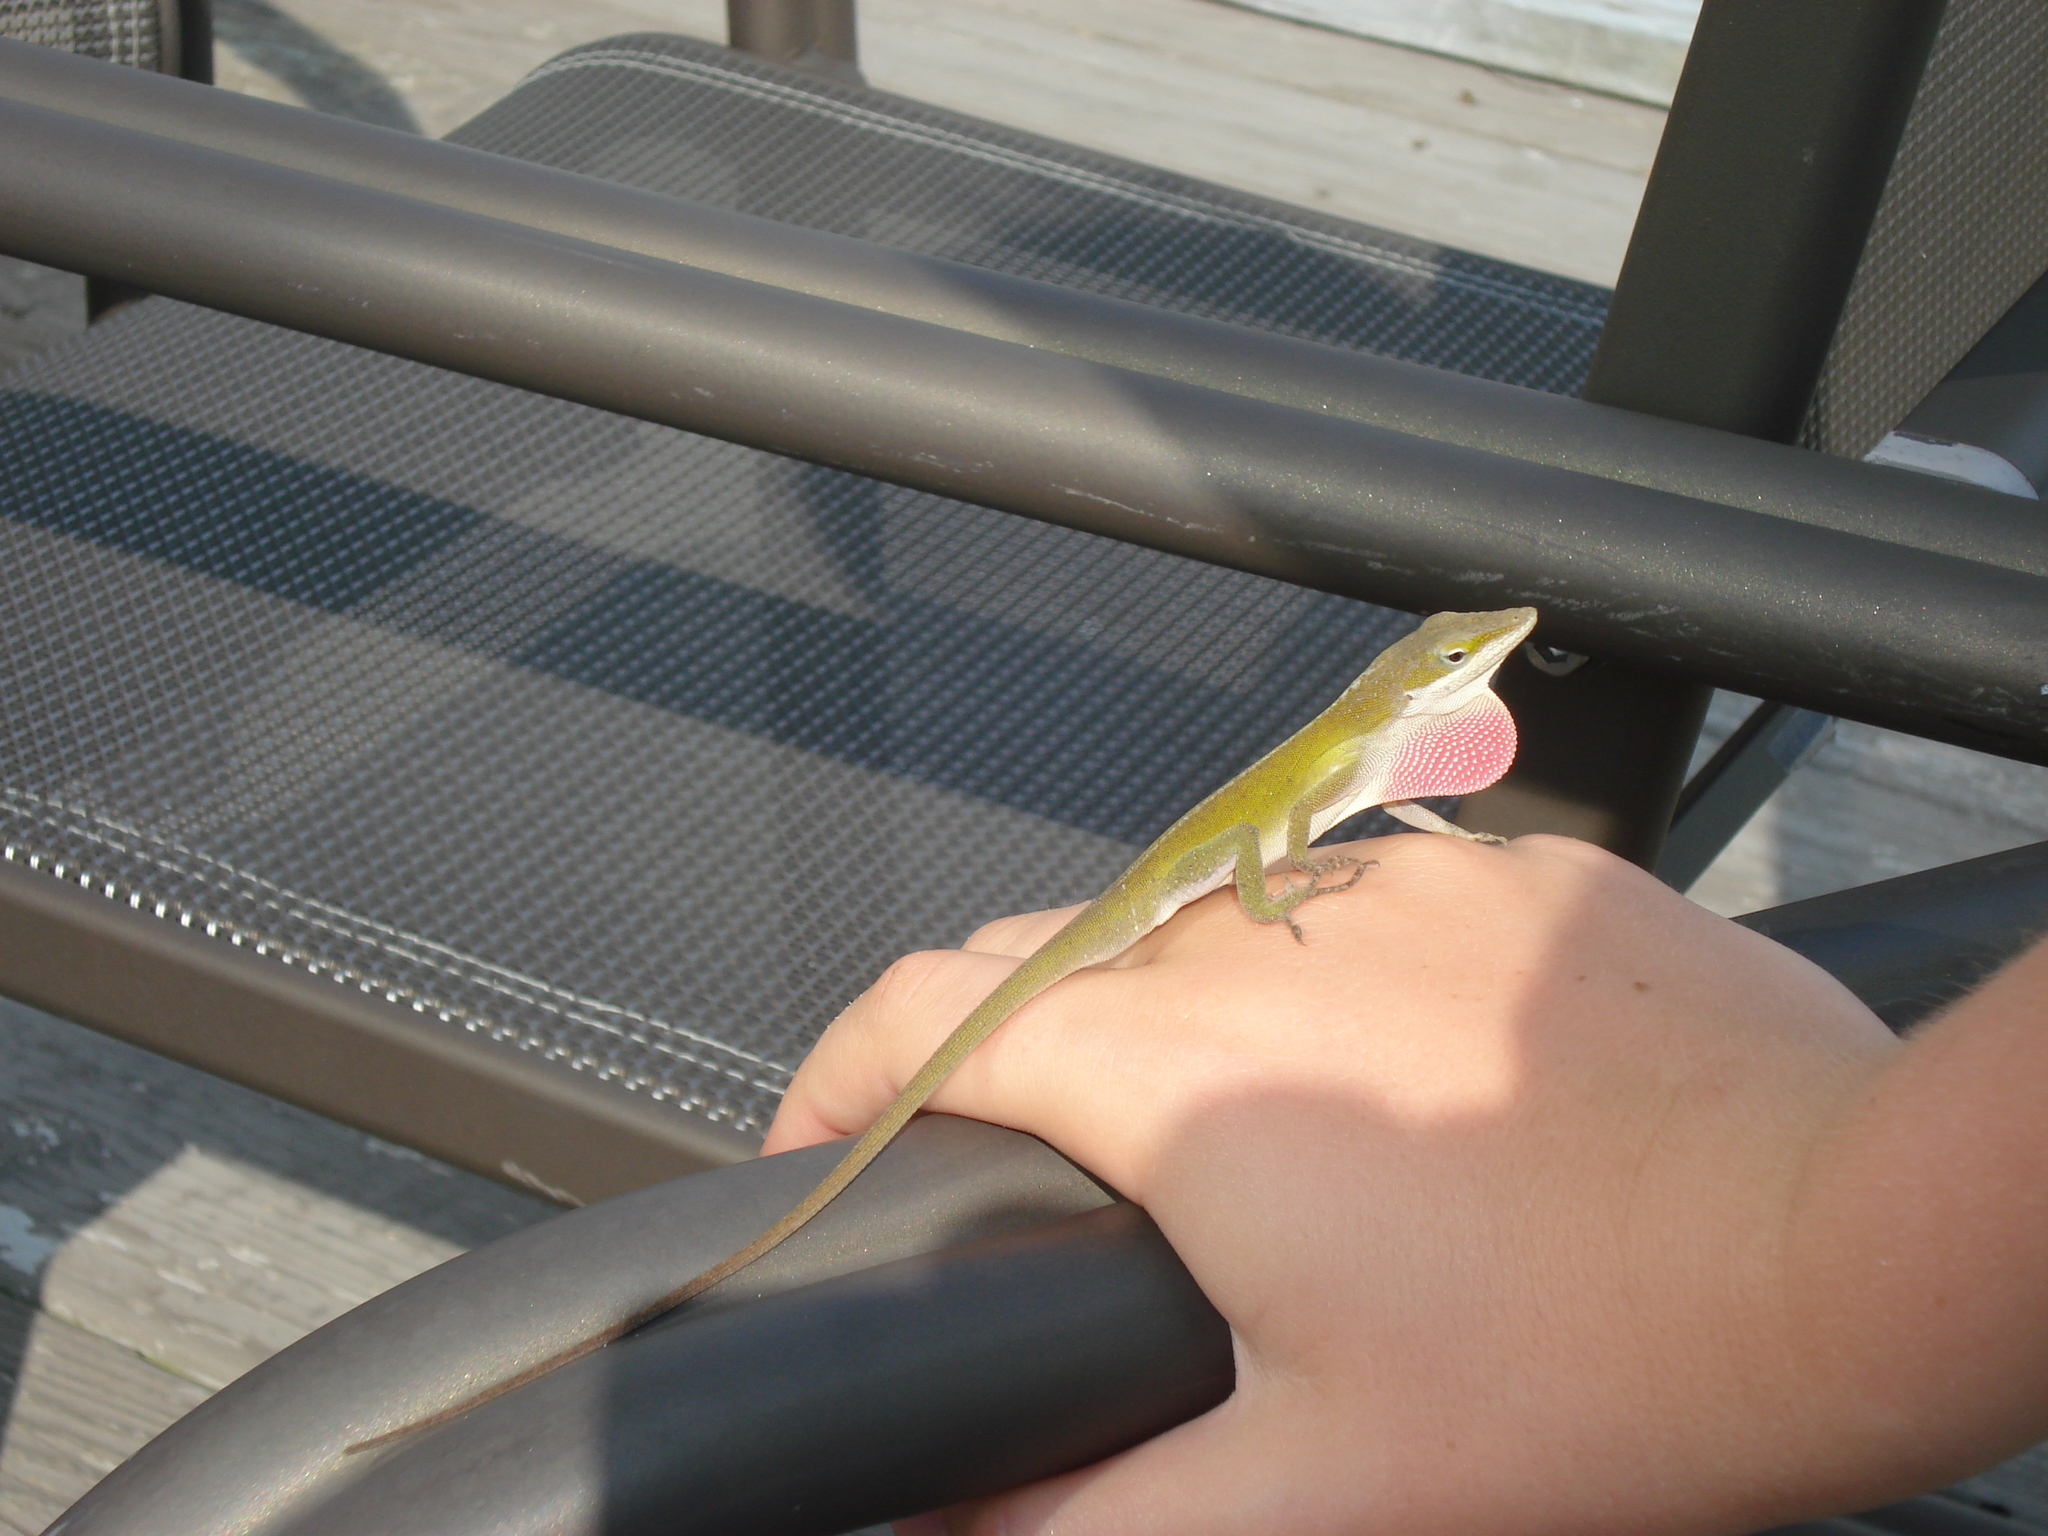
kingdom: Animalia
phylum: Chordata
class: Squamata
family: Dactyloidae
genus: Anolis
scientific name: Anolis carolinensis
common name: Green anole
